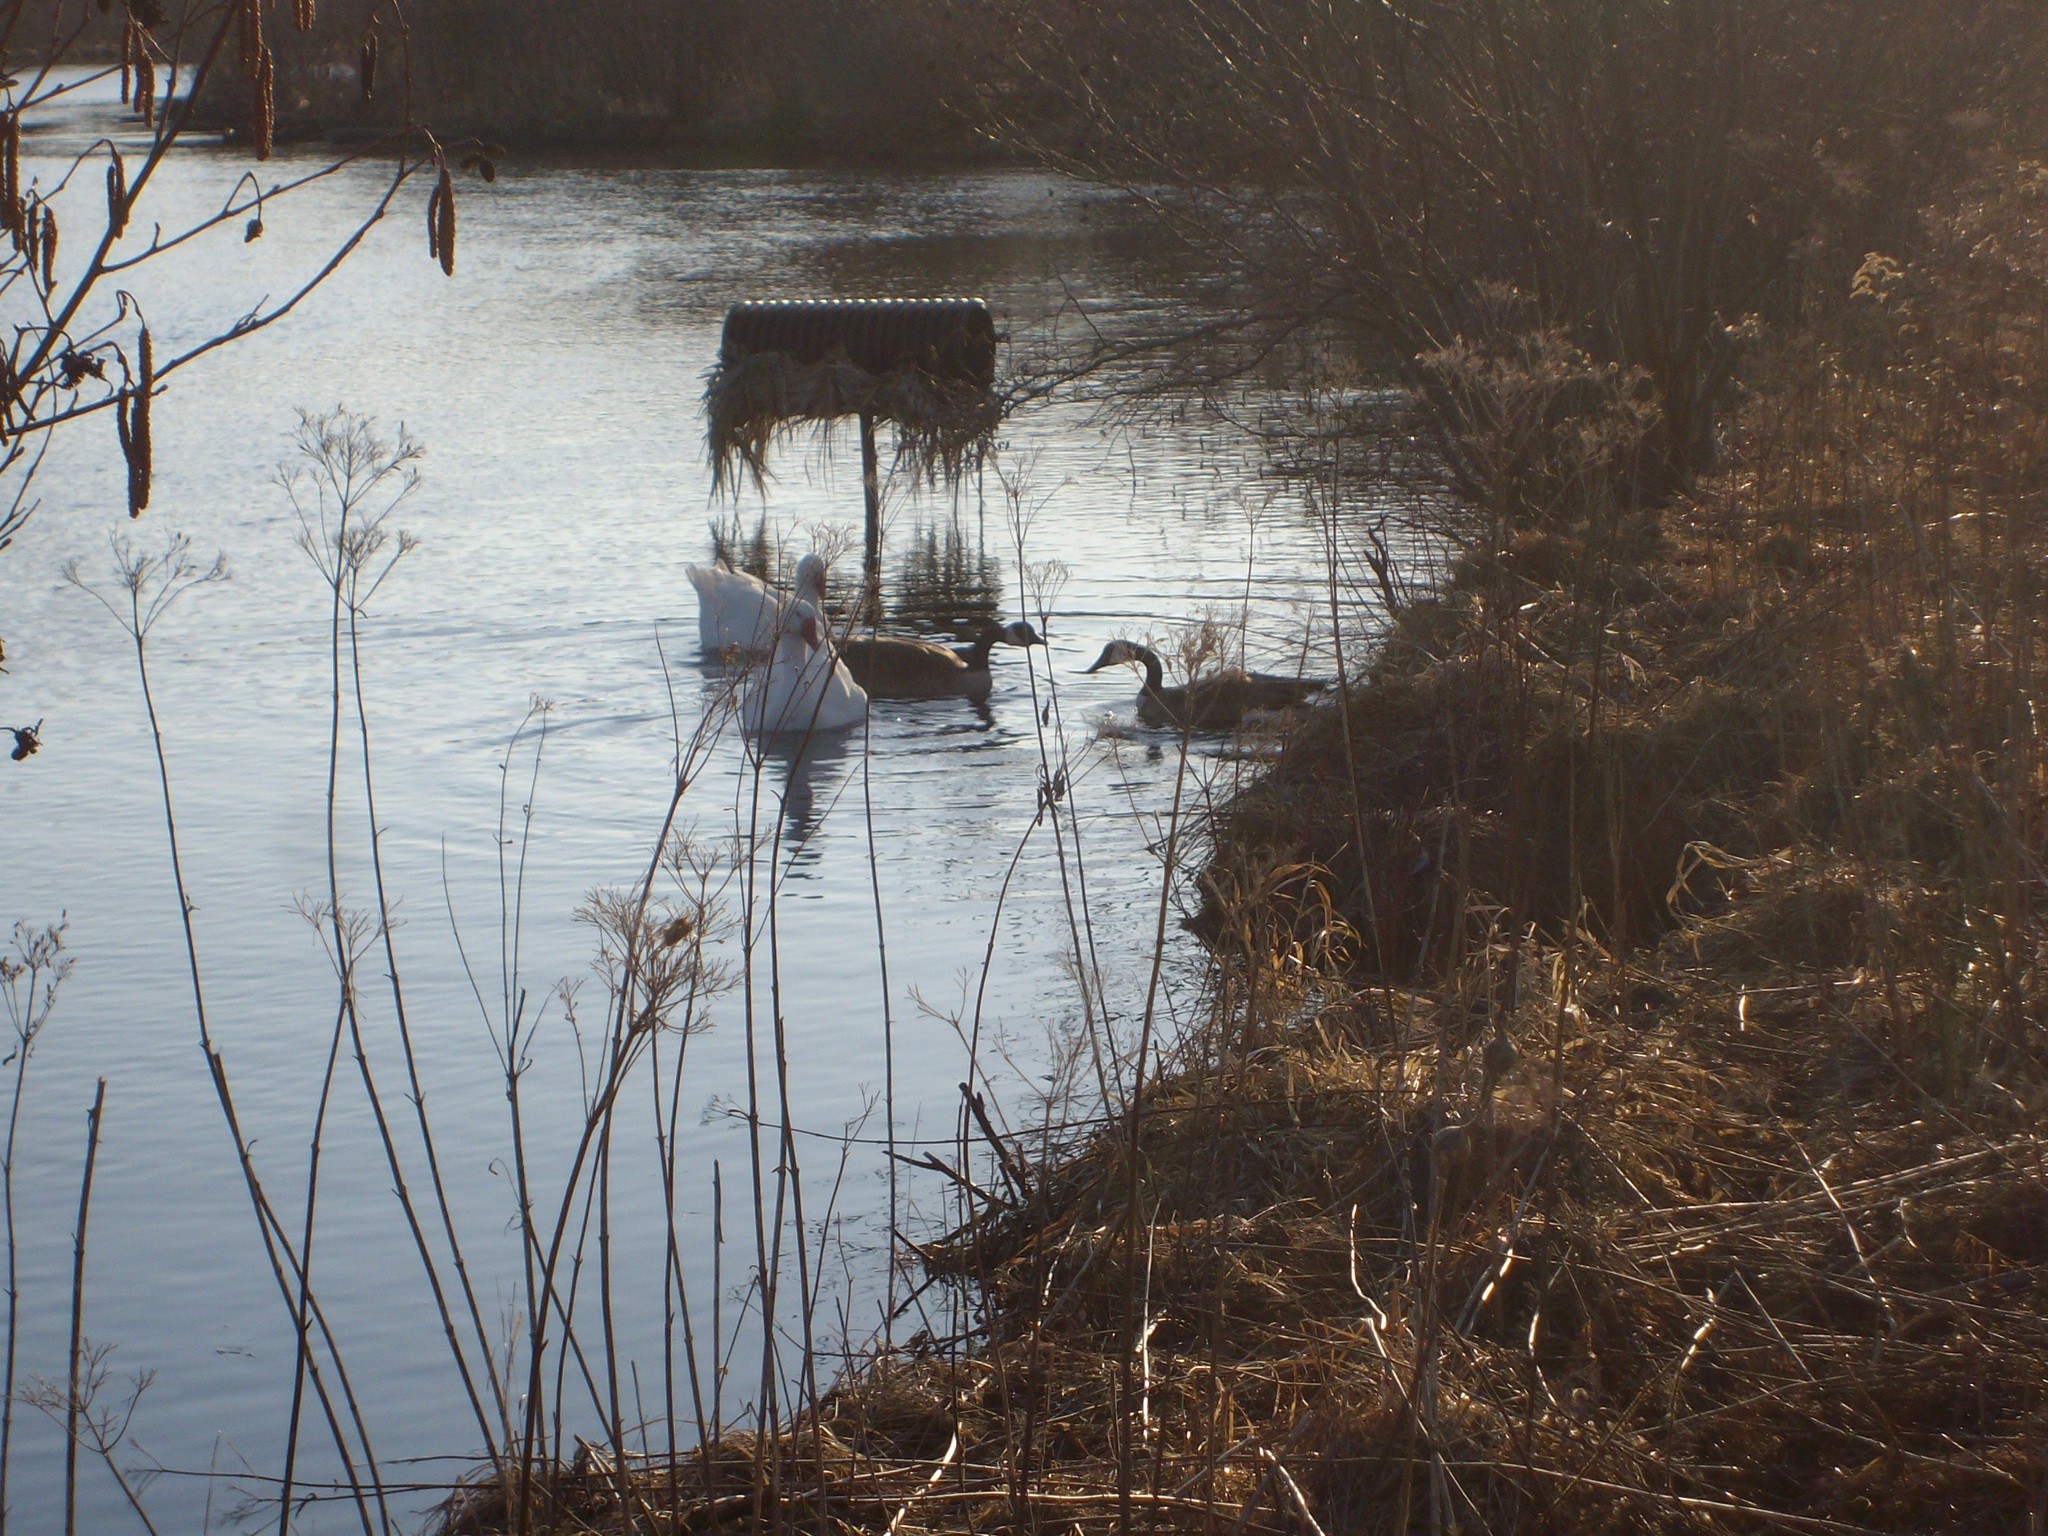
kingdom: Animalia
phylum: Chordata
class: Aves
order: Anseriformes
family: Anatidae
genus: Anser
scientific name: Anser anser
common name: Greylag goose
